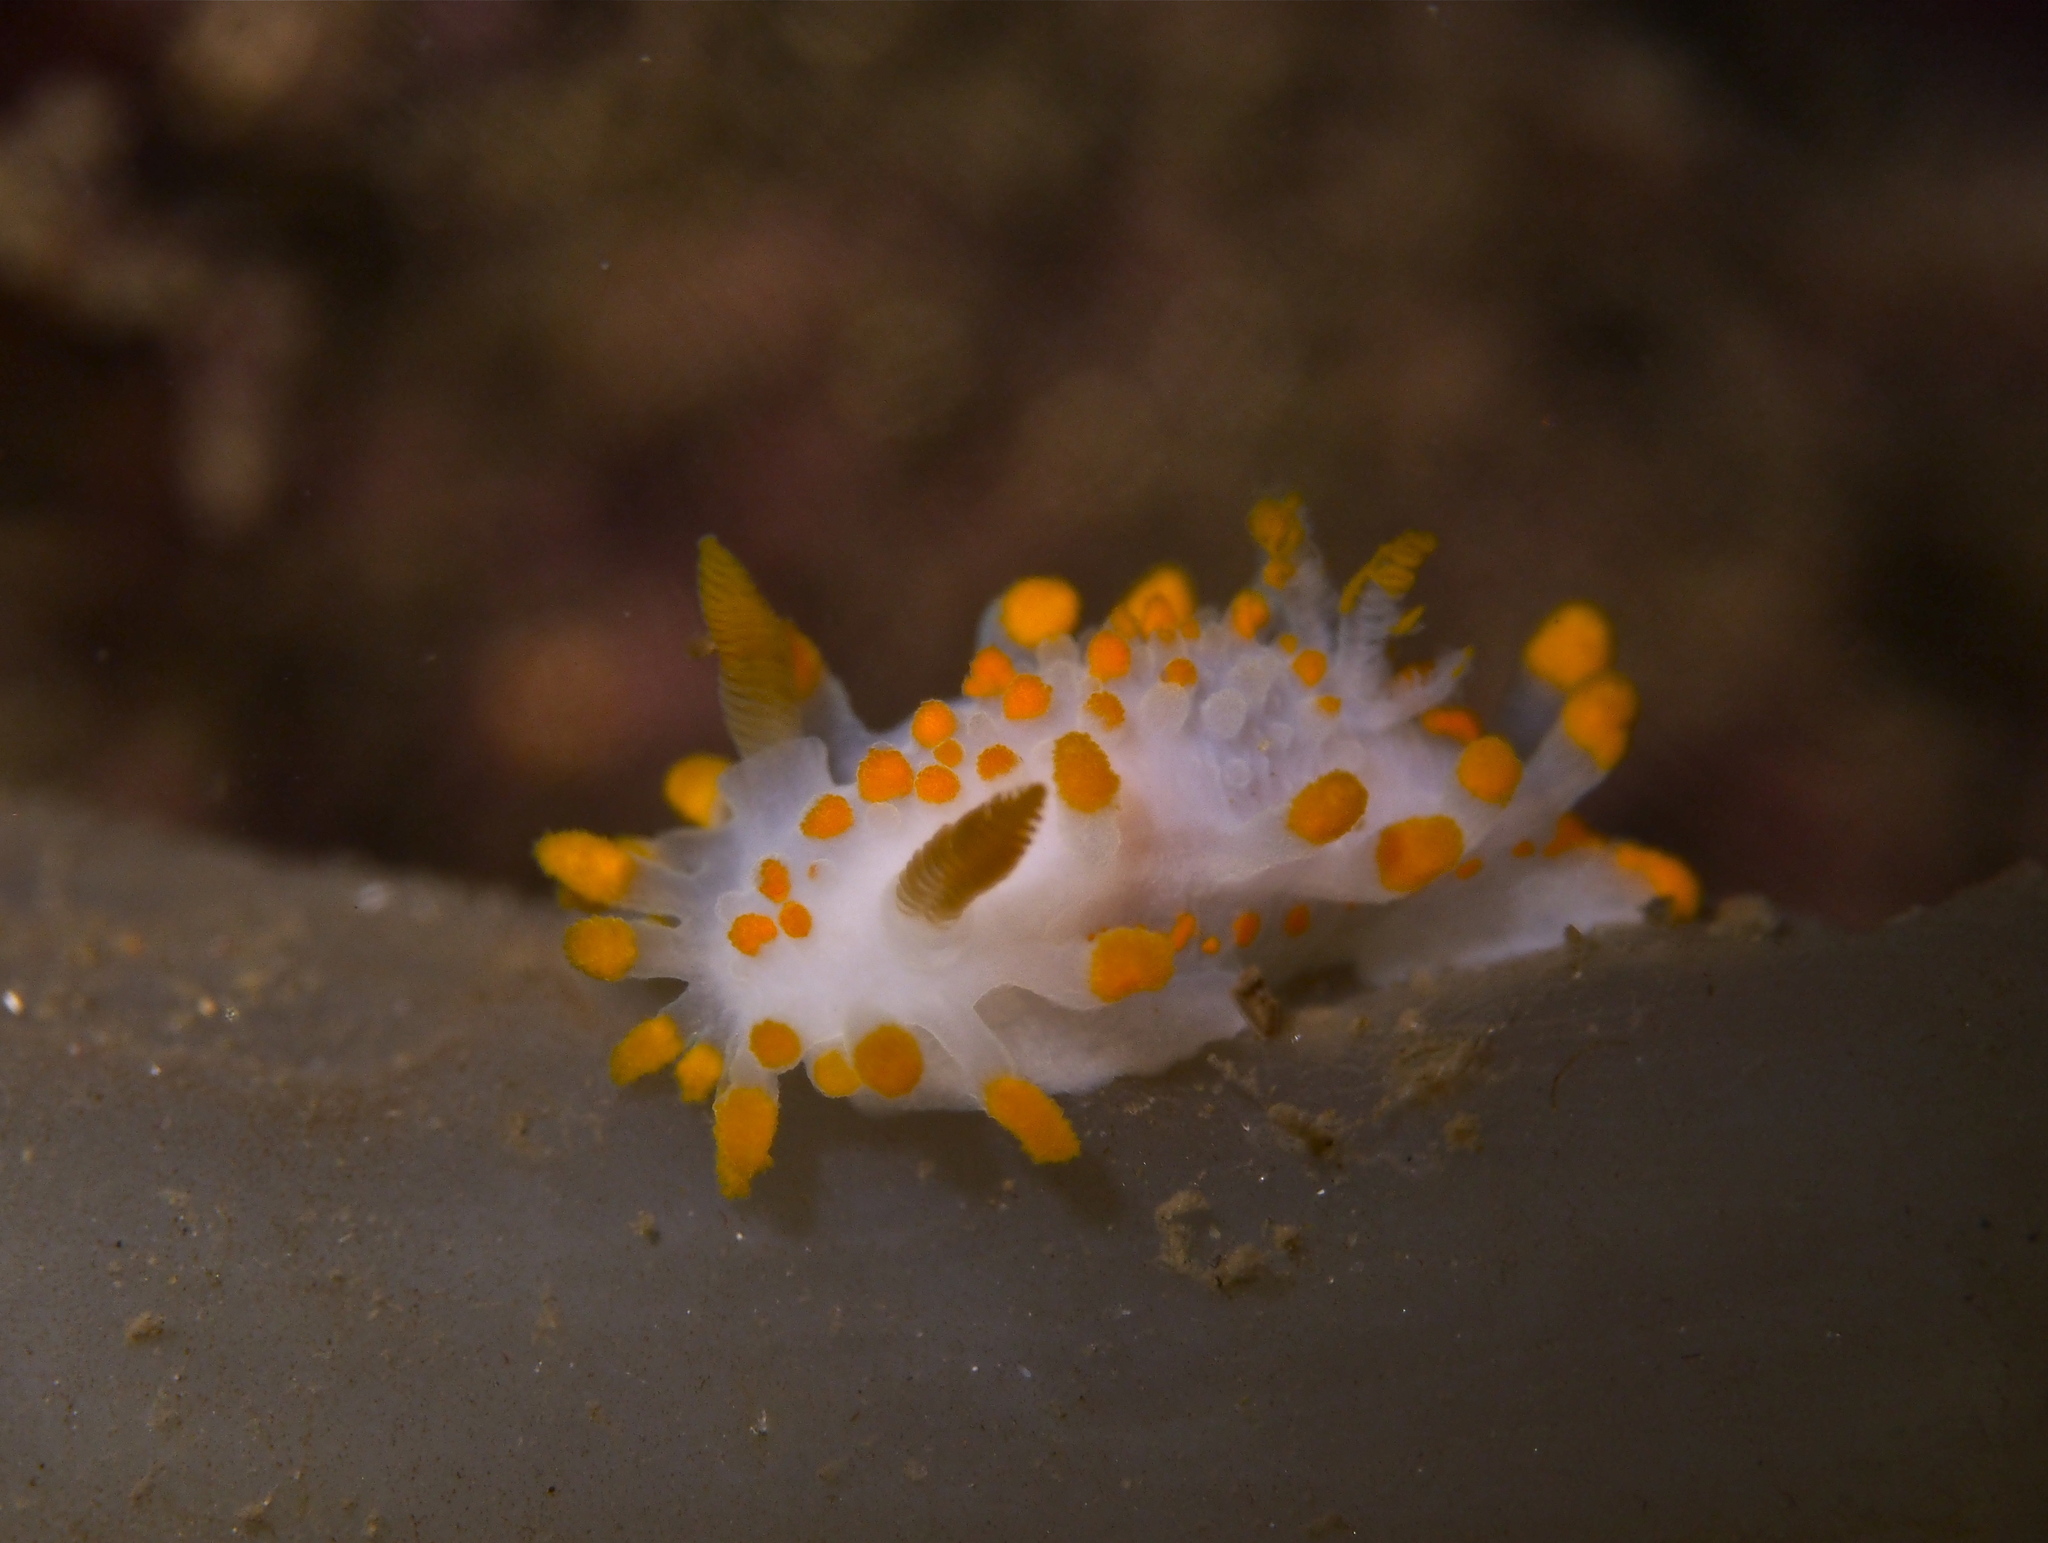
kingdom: Animalia
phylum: Mollusca
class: Gastropoda
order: Nudibranchia
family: Polyceridae
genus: Limacia
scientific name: Limacia clavigera
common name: Orange-clubbed sea slug
